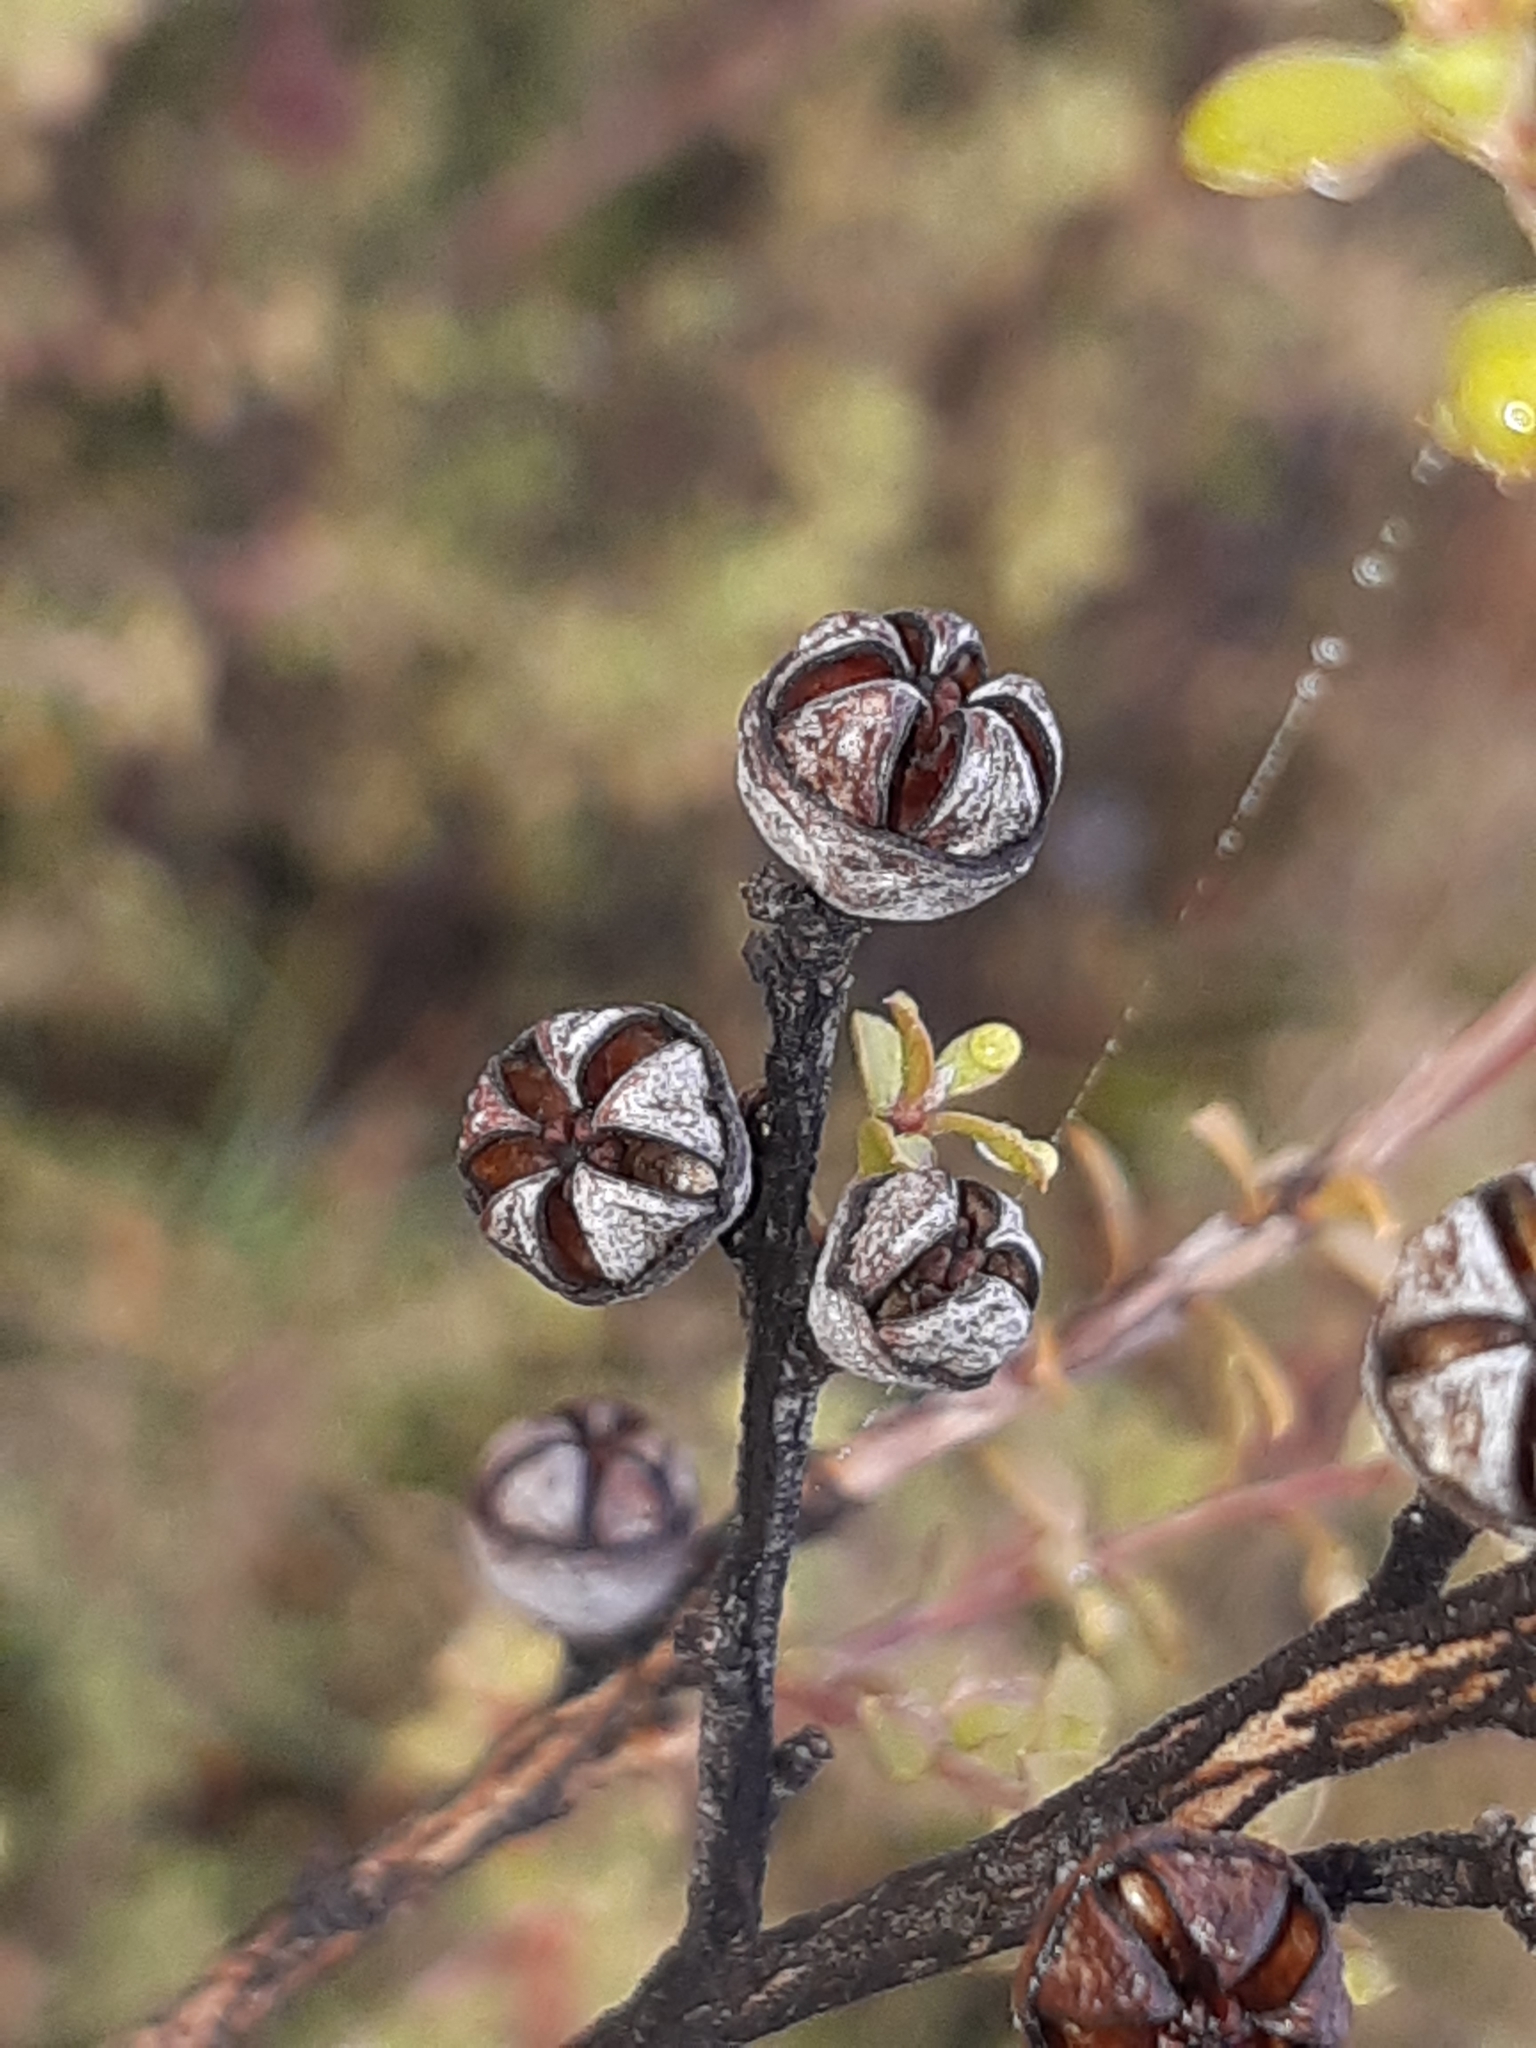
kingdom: Plantae
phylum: Tracheophyta
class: Magnoliopsida
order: Myrtales
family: Myrtaceae
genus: Leptospermum
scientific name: Leptospermum scoparium
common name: Broom tea-tree
